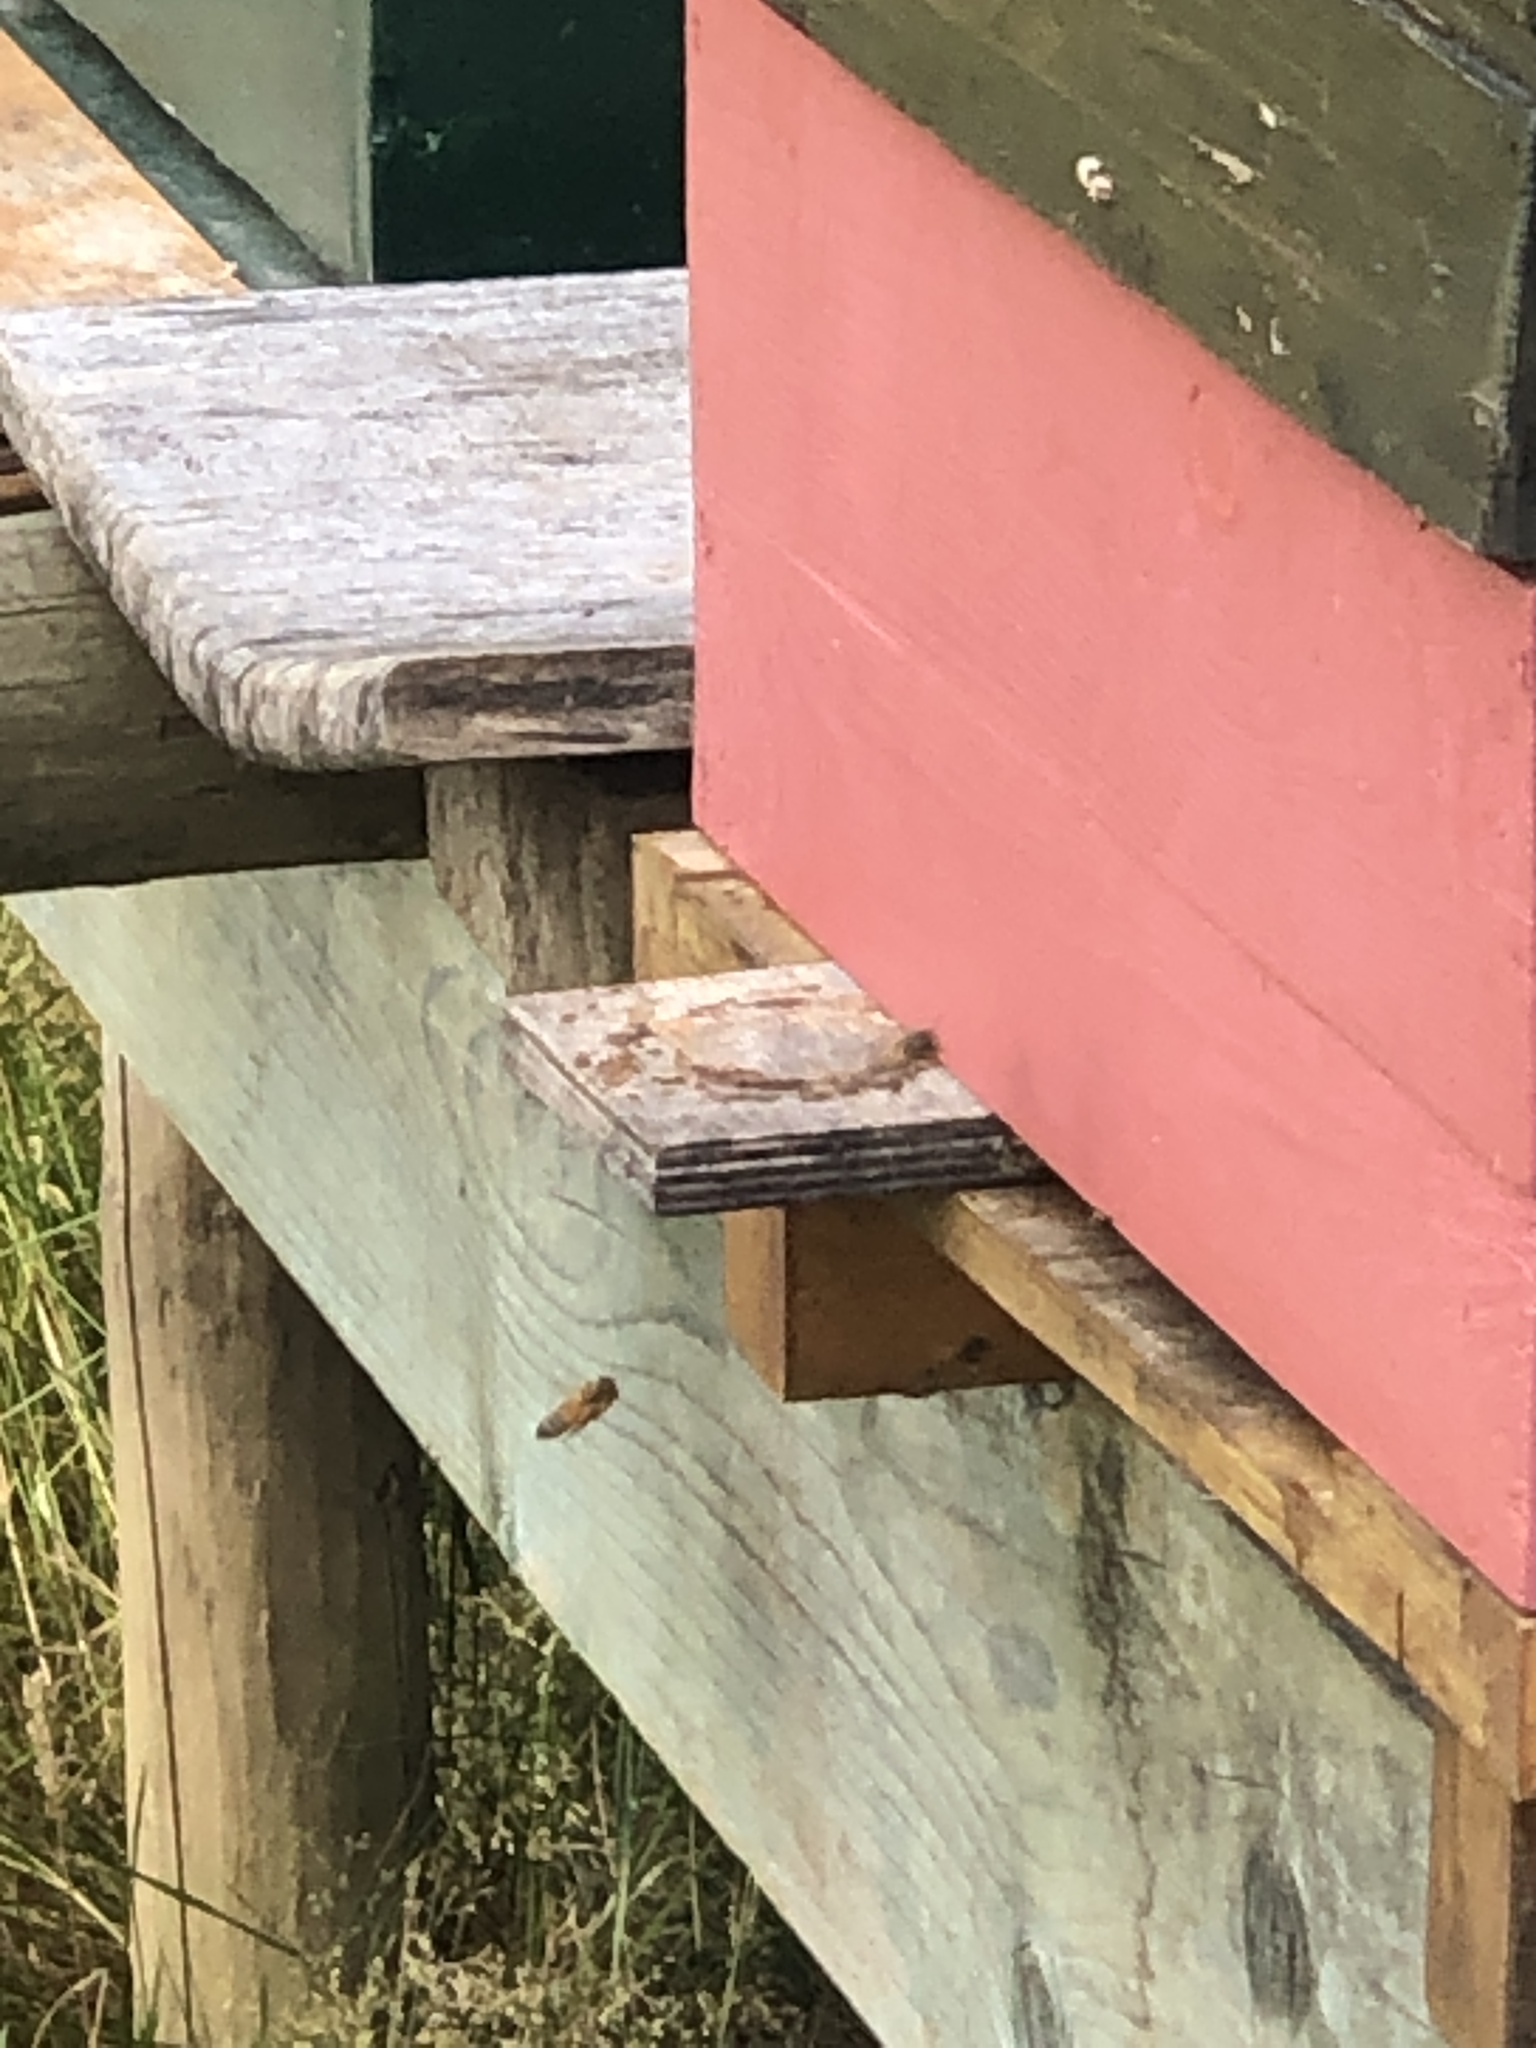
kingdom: Animalia
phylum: Arthropoda
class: Insecta
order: Hymenoptera
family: Apidae
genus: Apis
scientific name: Apis mellifera
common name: Honey bee
